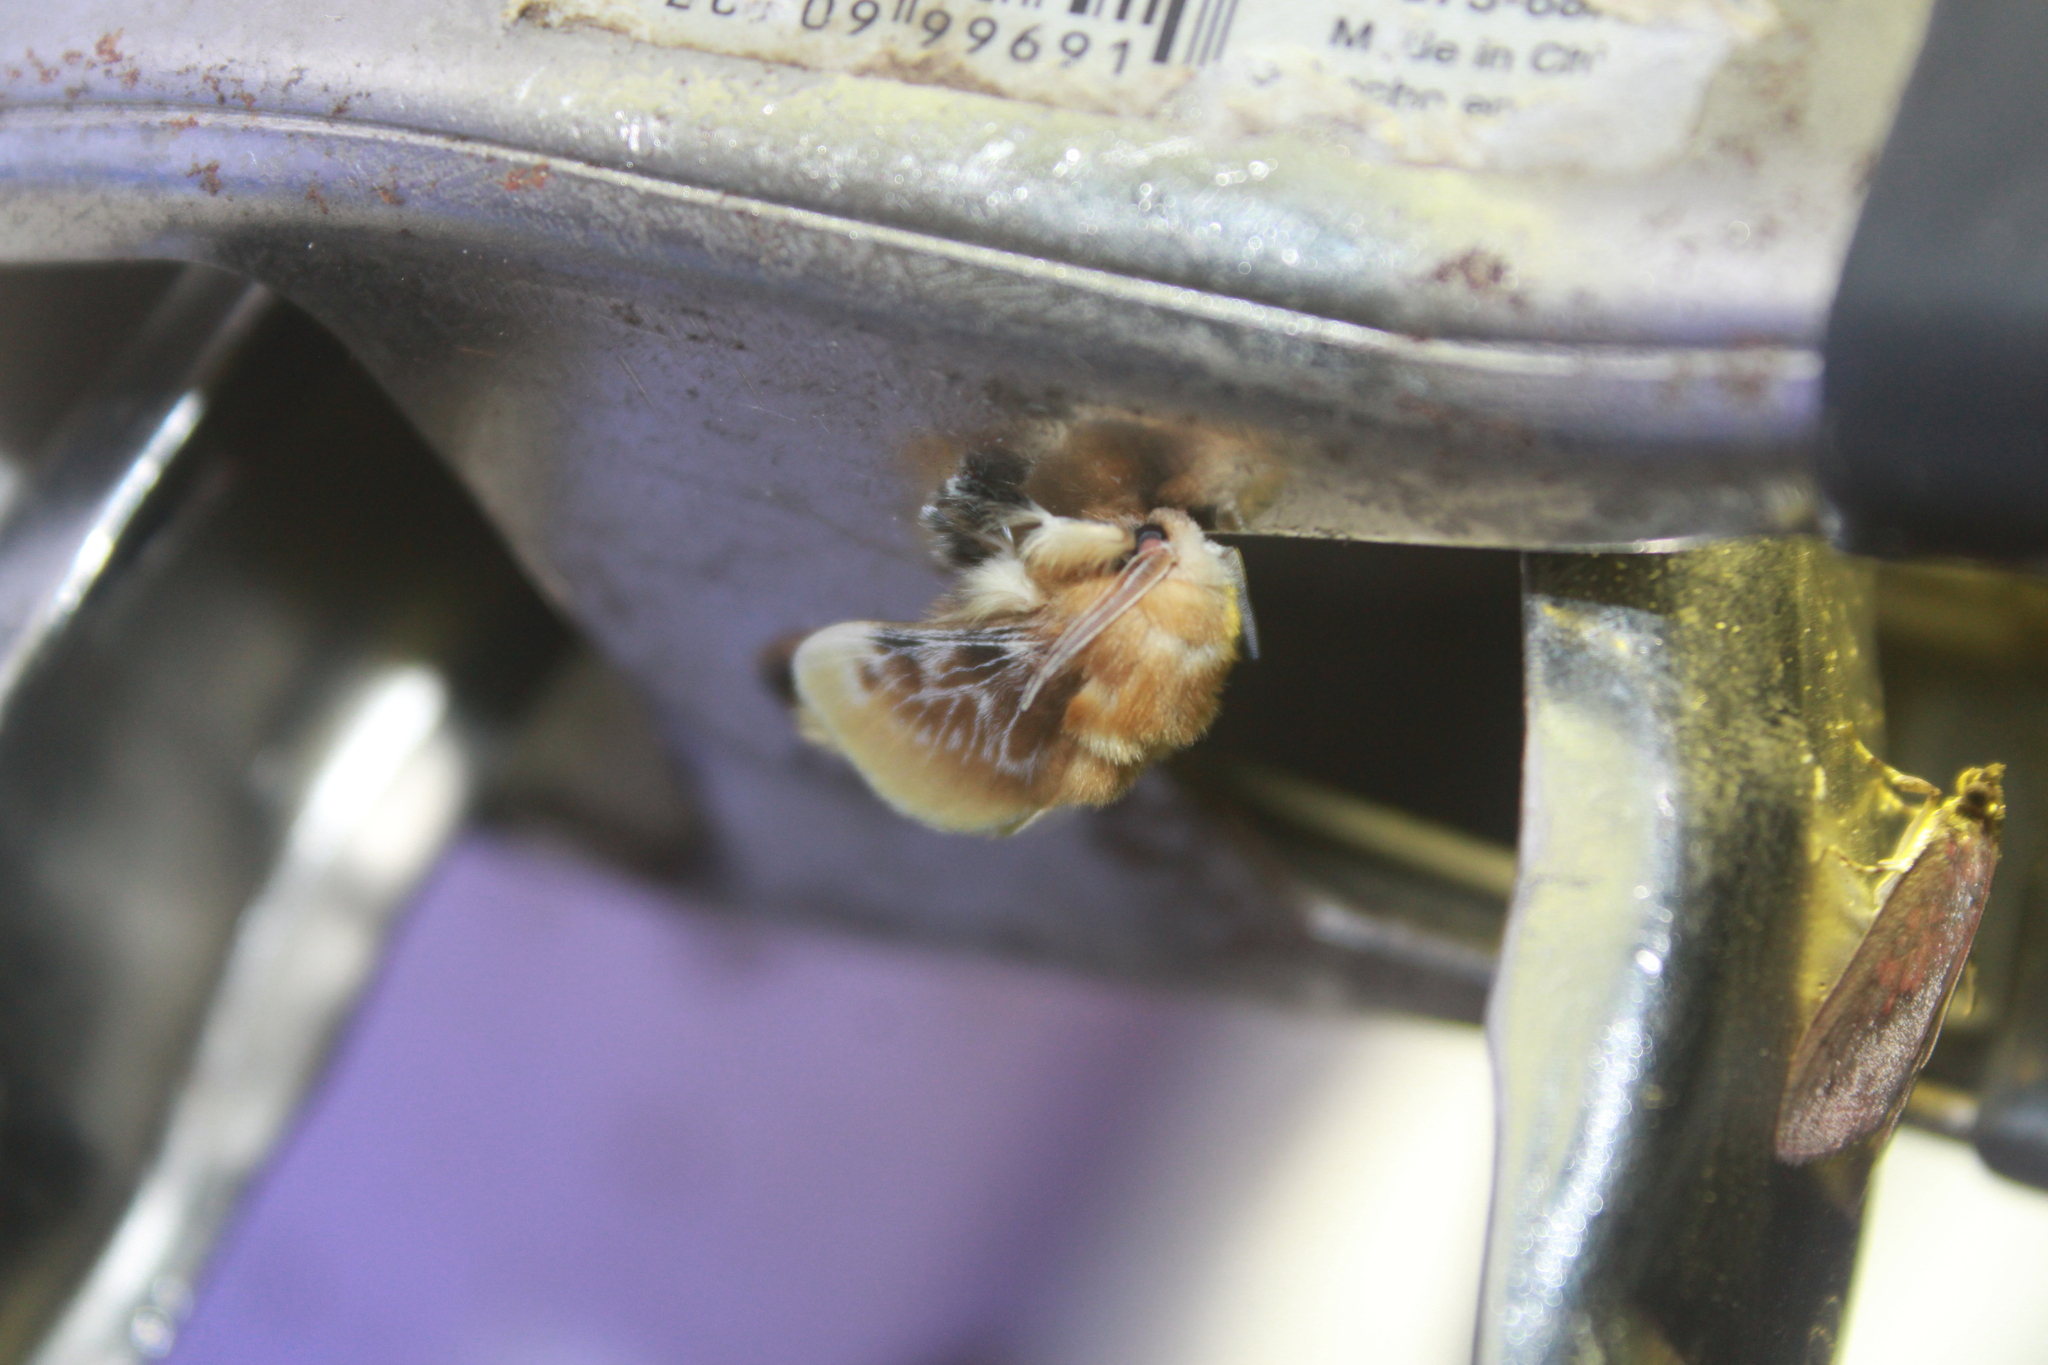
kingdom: Animalia
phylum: Arthropoda
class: Insecta
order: Lepidoptera
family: Megalopygidae
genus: Megalopyge
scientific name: Megalopyge opercularis
